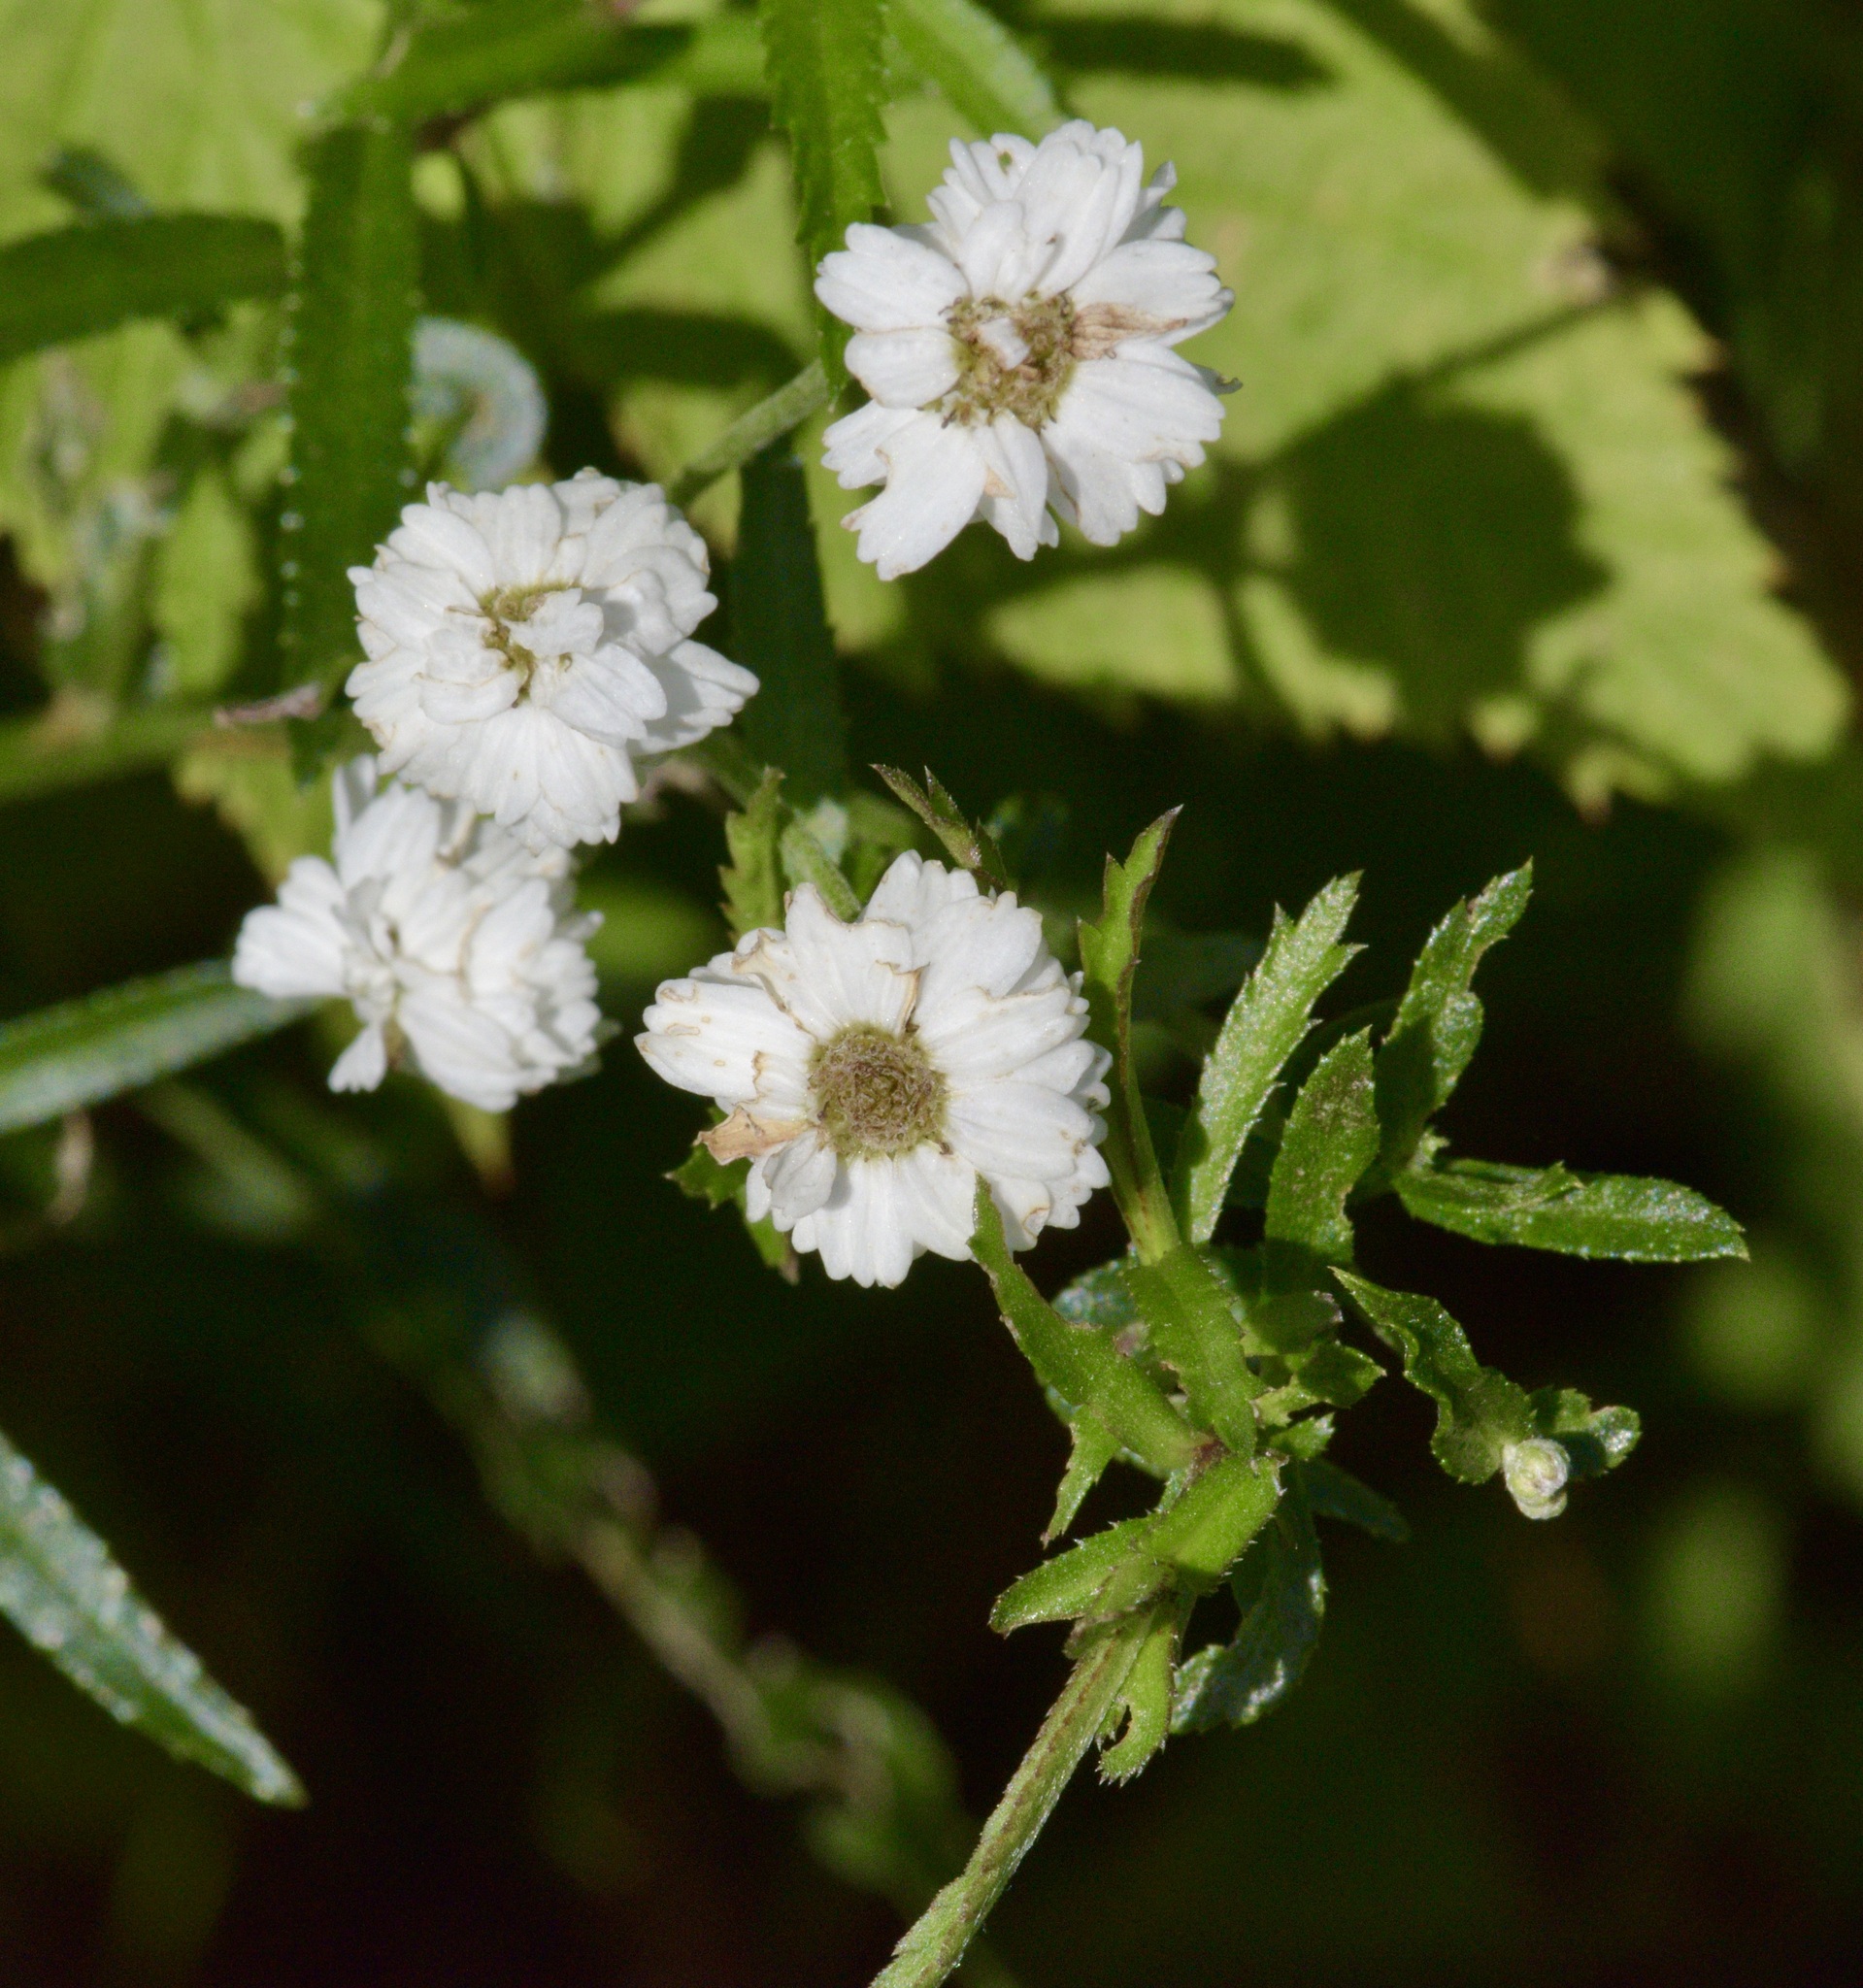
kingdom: Plantae
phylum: Tracheophyta
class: Magnoliopsida
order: Asterales
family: Asteraceae
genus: Achillea
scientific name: Achillea ptarmica
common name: Sneezeweed
